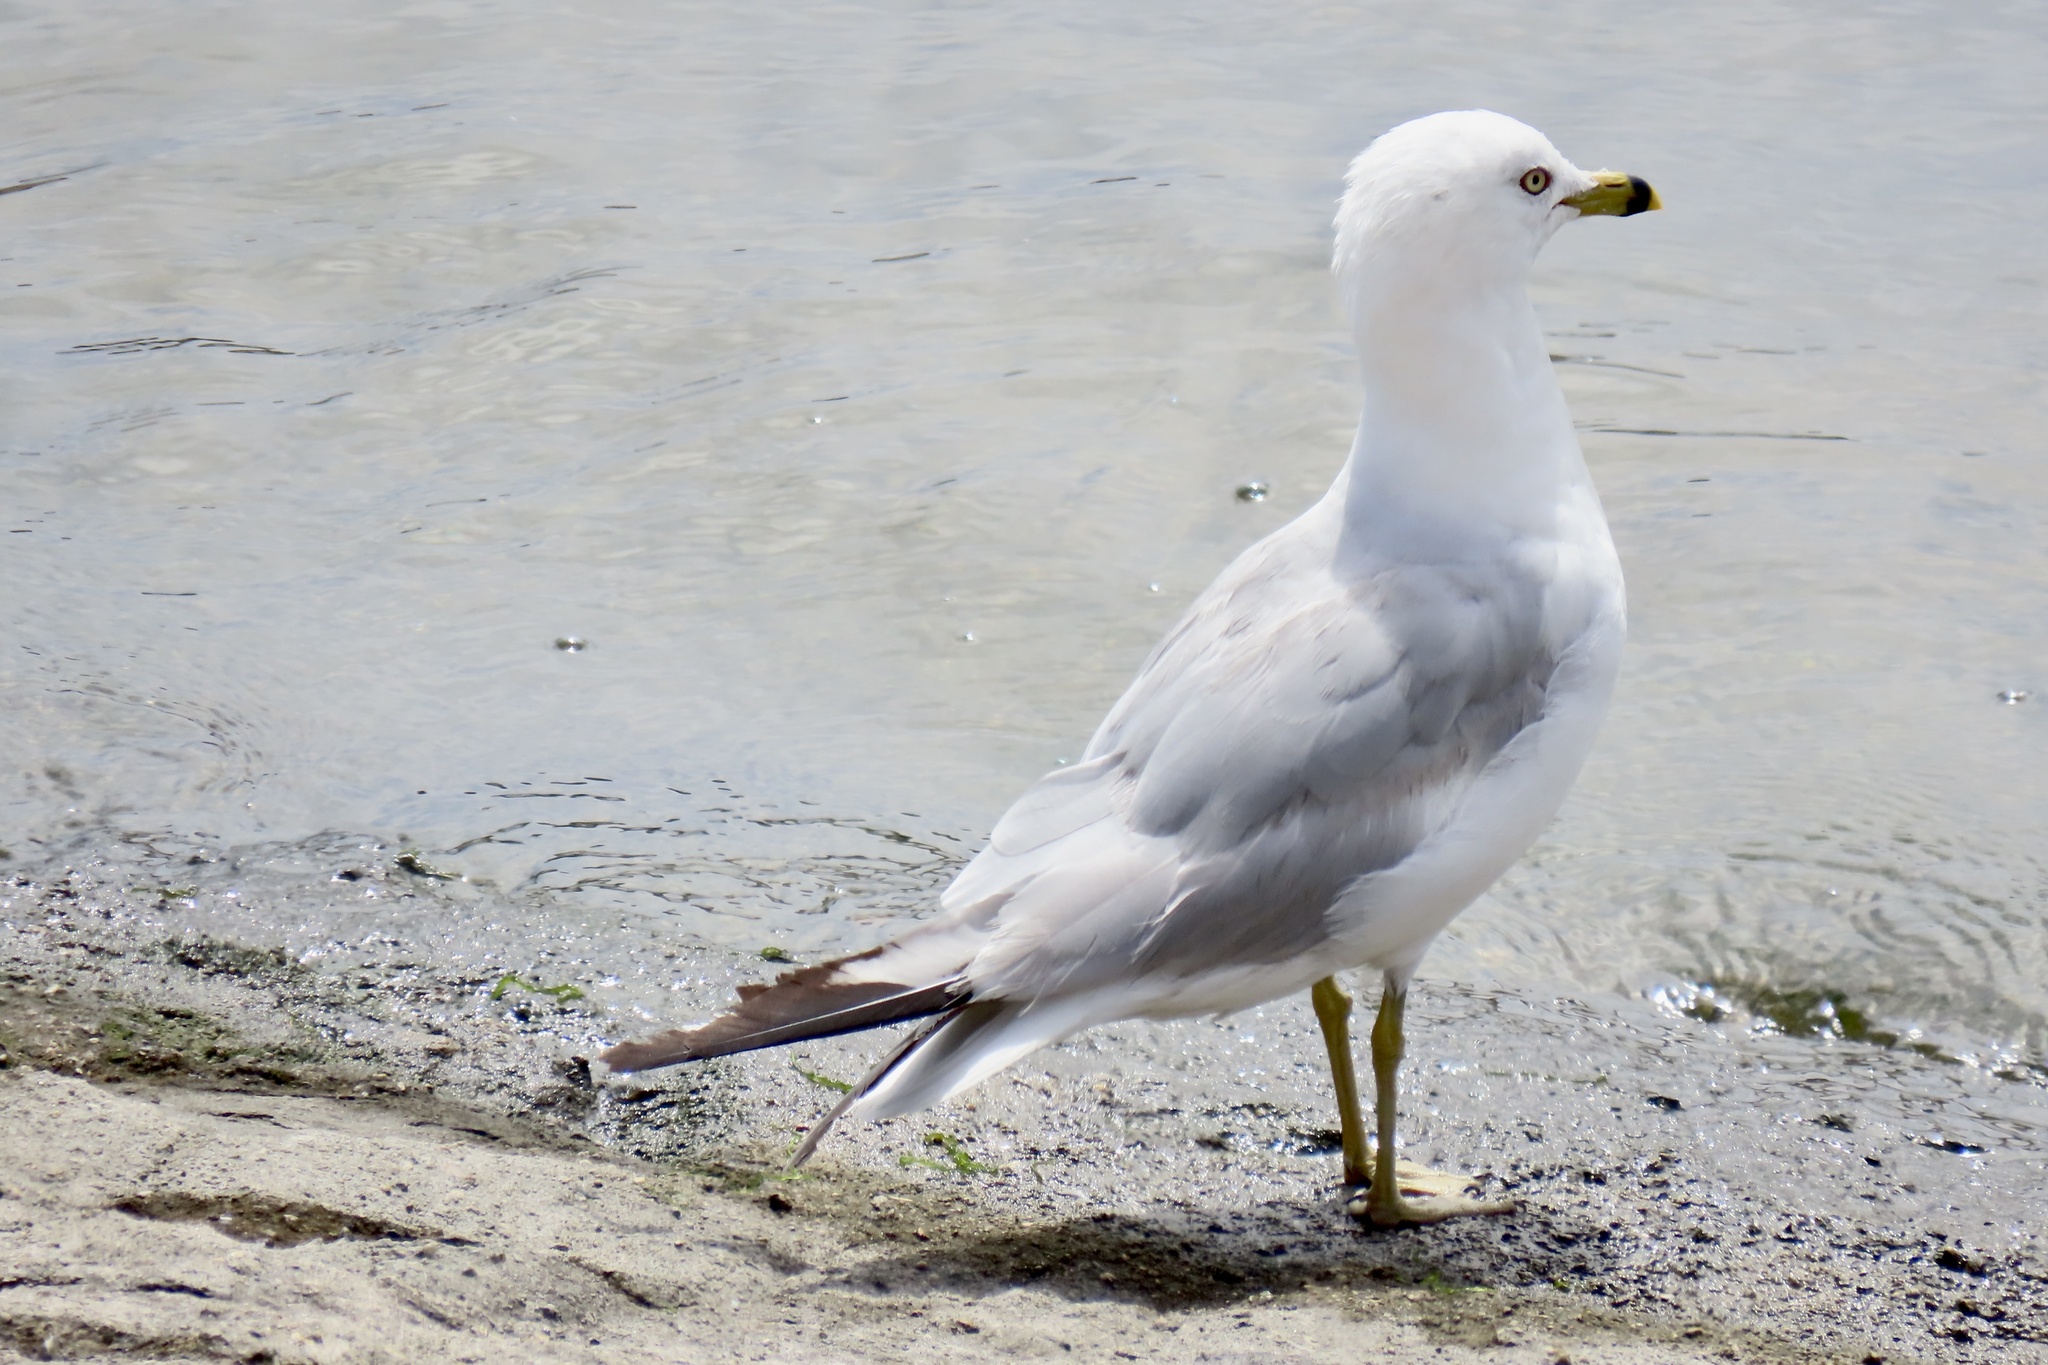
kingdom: Animalia
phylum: Chordata
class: Aves
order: Charadriiformes
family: Laridae
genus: Larus
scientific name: Larus delawarensis
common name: Ring-billed gull
